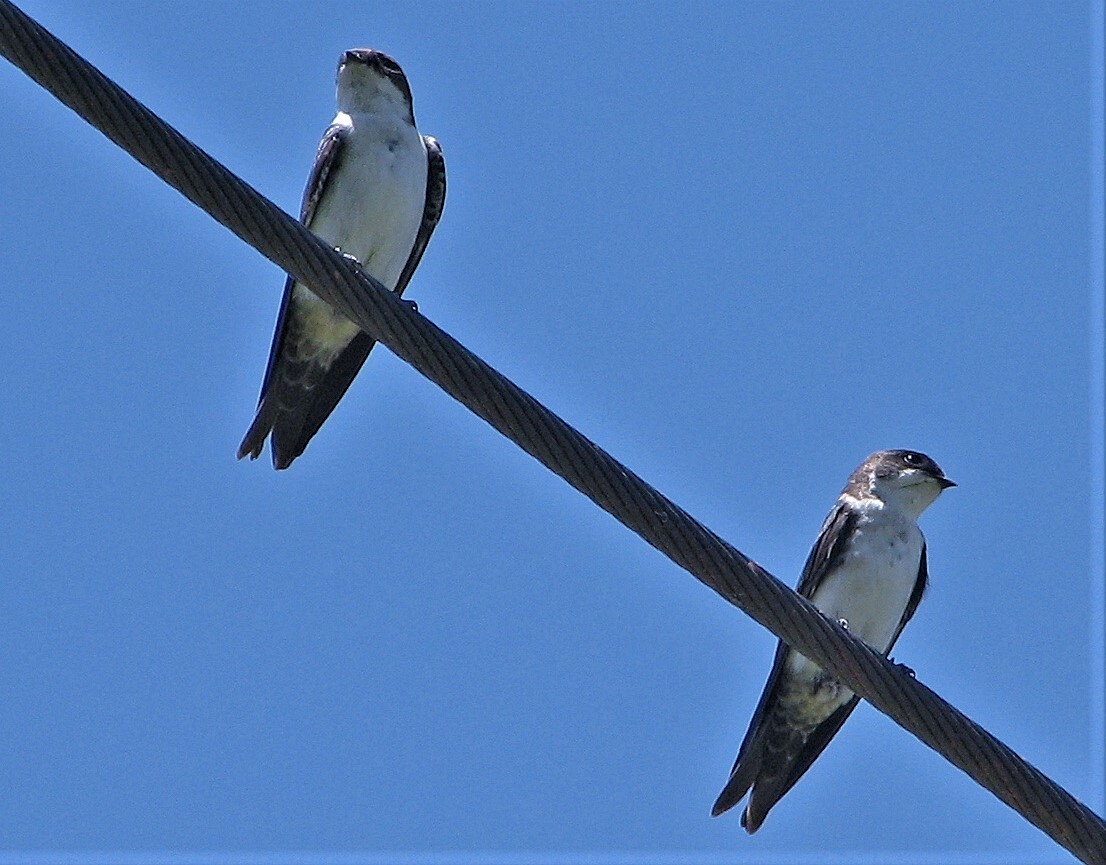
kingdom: Animalia
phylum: Chordata
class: Aves
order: Passeriformes
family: Hirundinidae
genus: Notiochelidon
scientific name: Notiochelidon cyanoleuca
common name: Blue-and-white swallow
